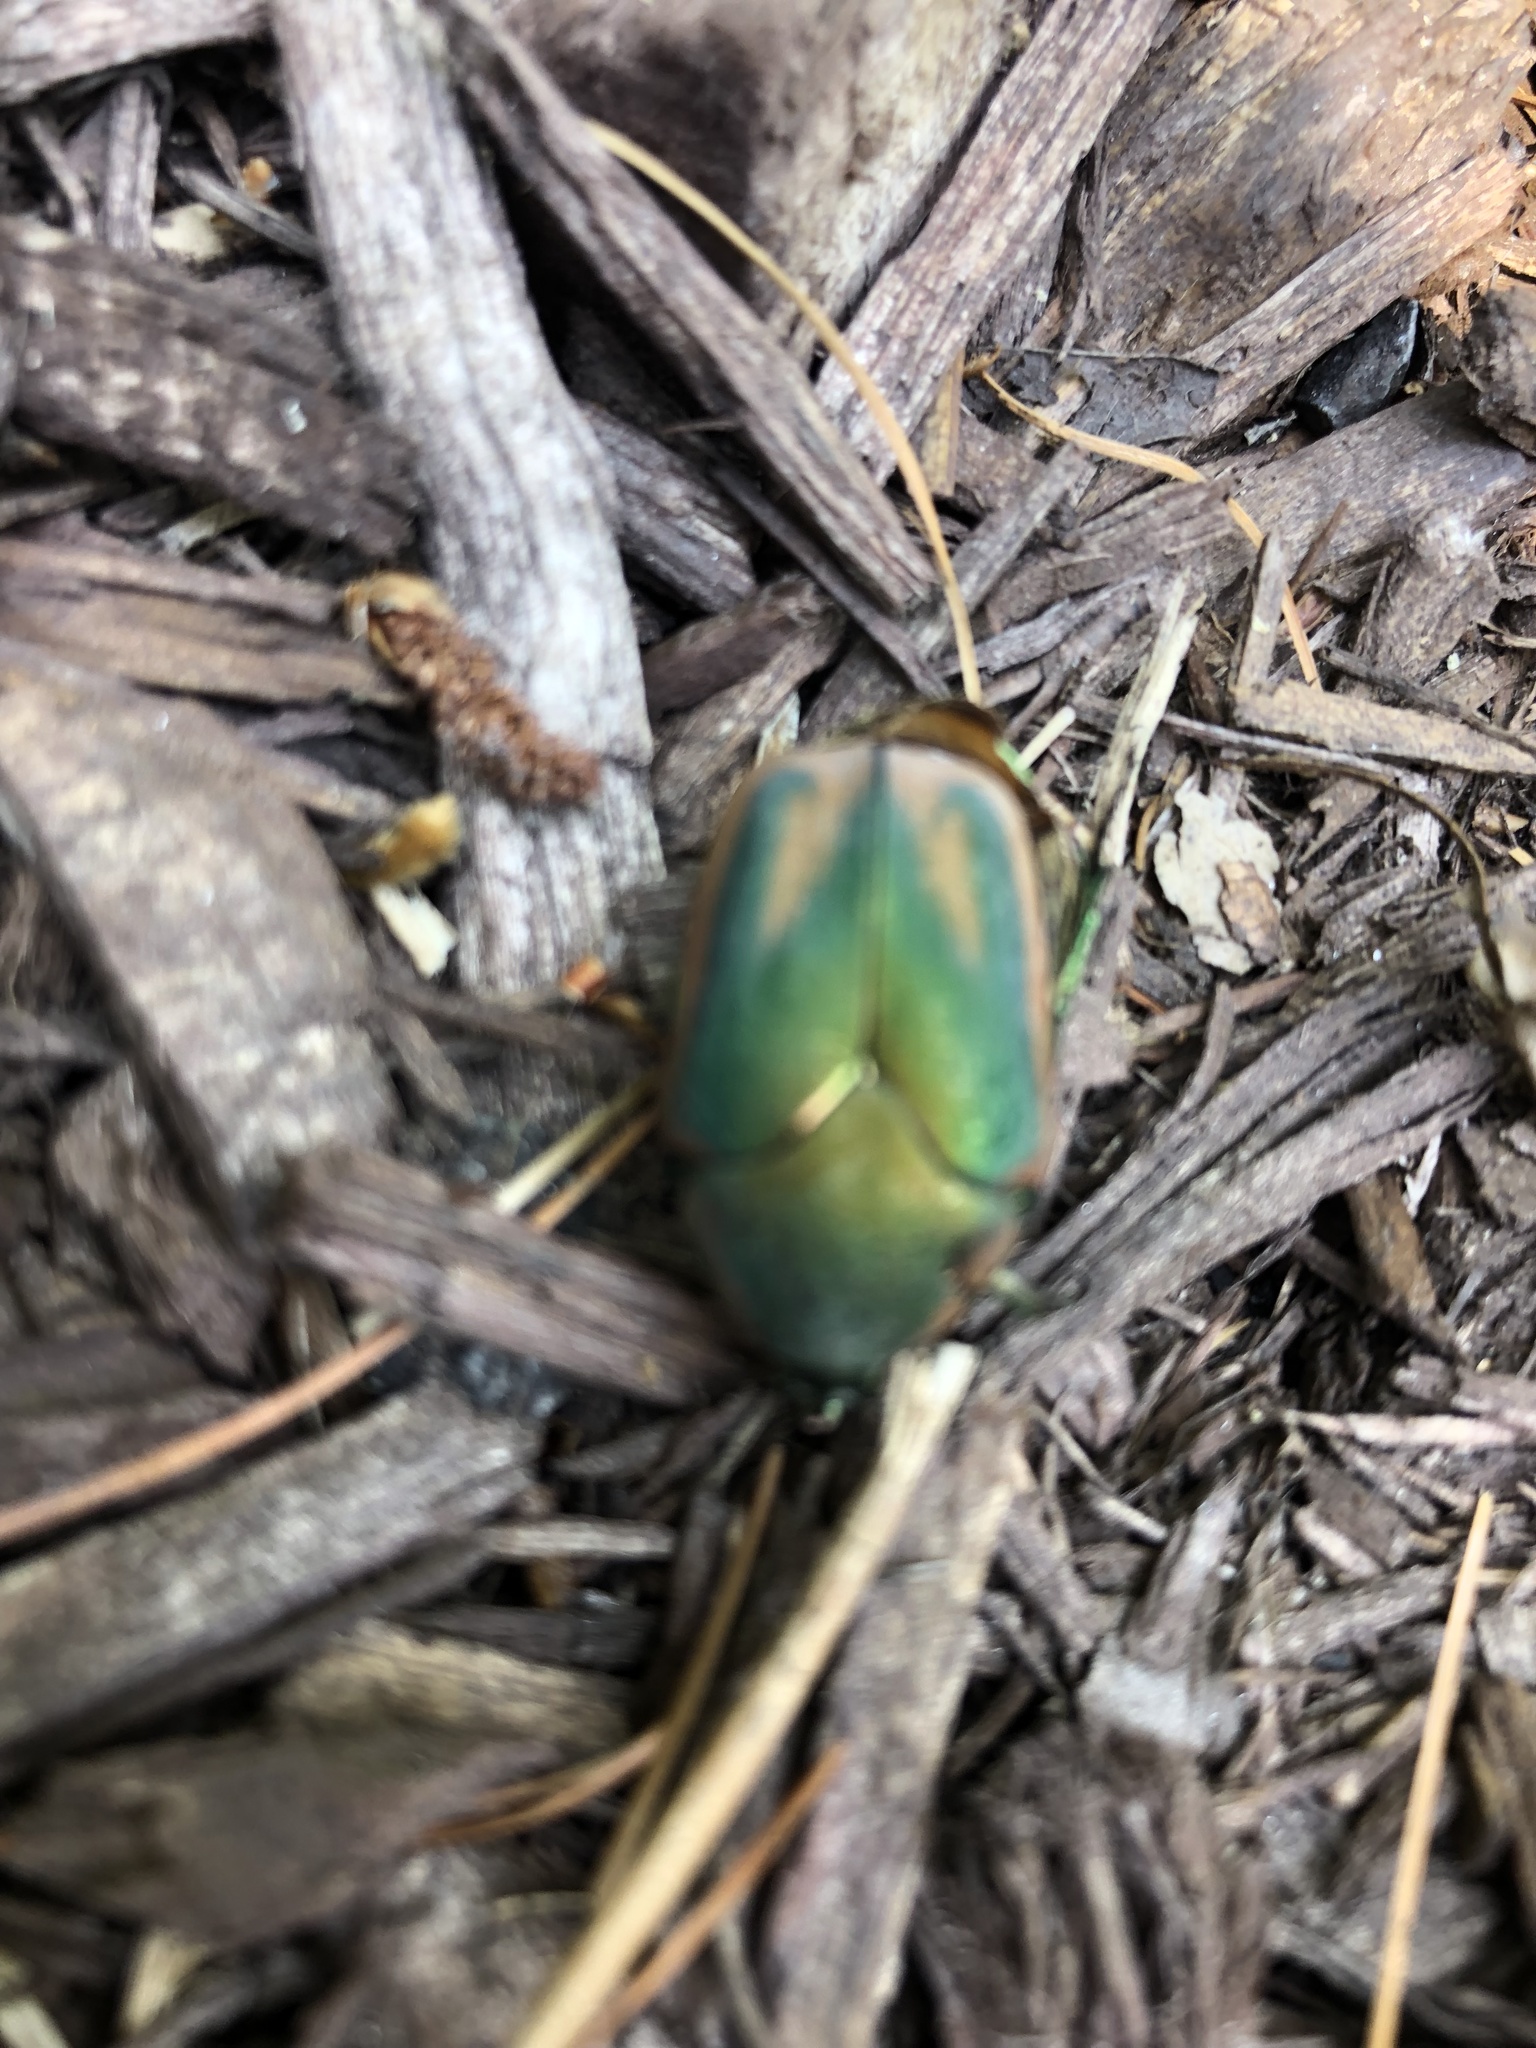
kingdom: Animalia
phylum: Arthropoda
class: Insecta
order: Coleoptera
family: Scarabaeidae
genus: Cotinis
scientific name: Cotinis nitida
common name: Common green june beetle
